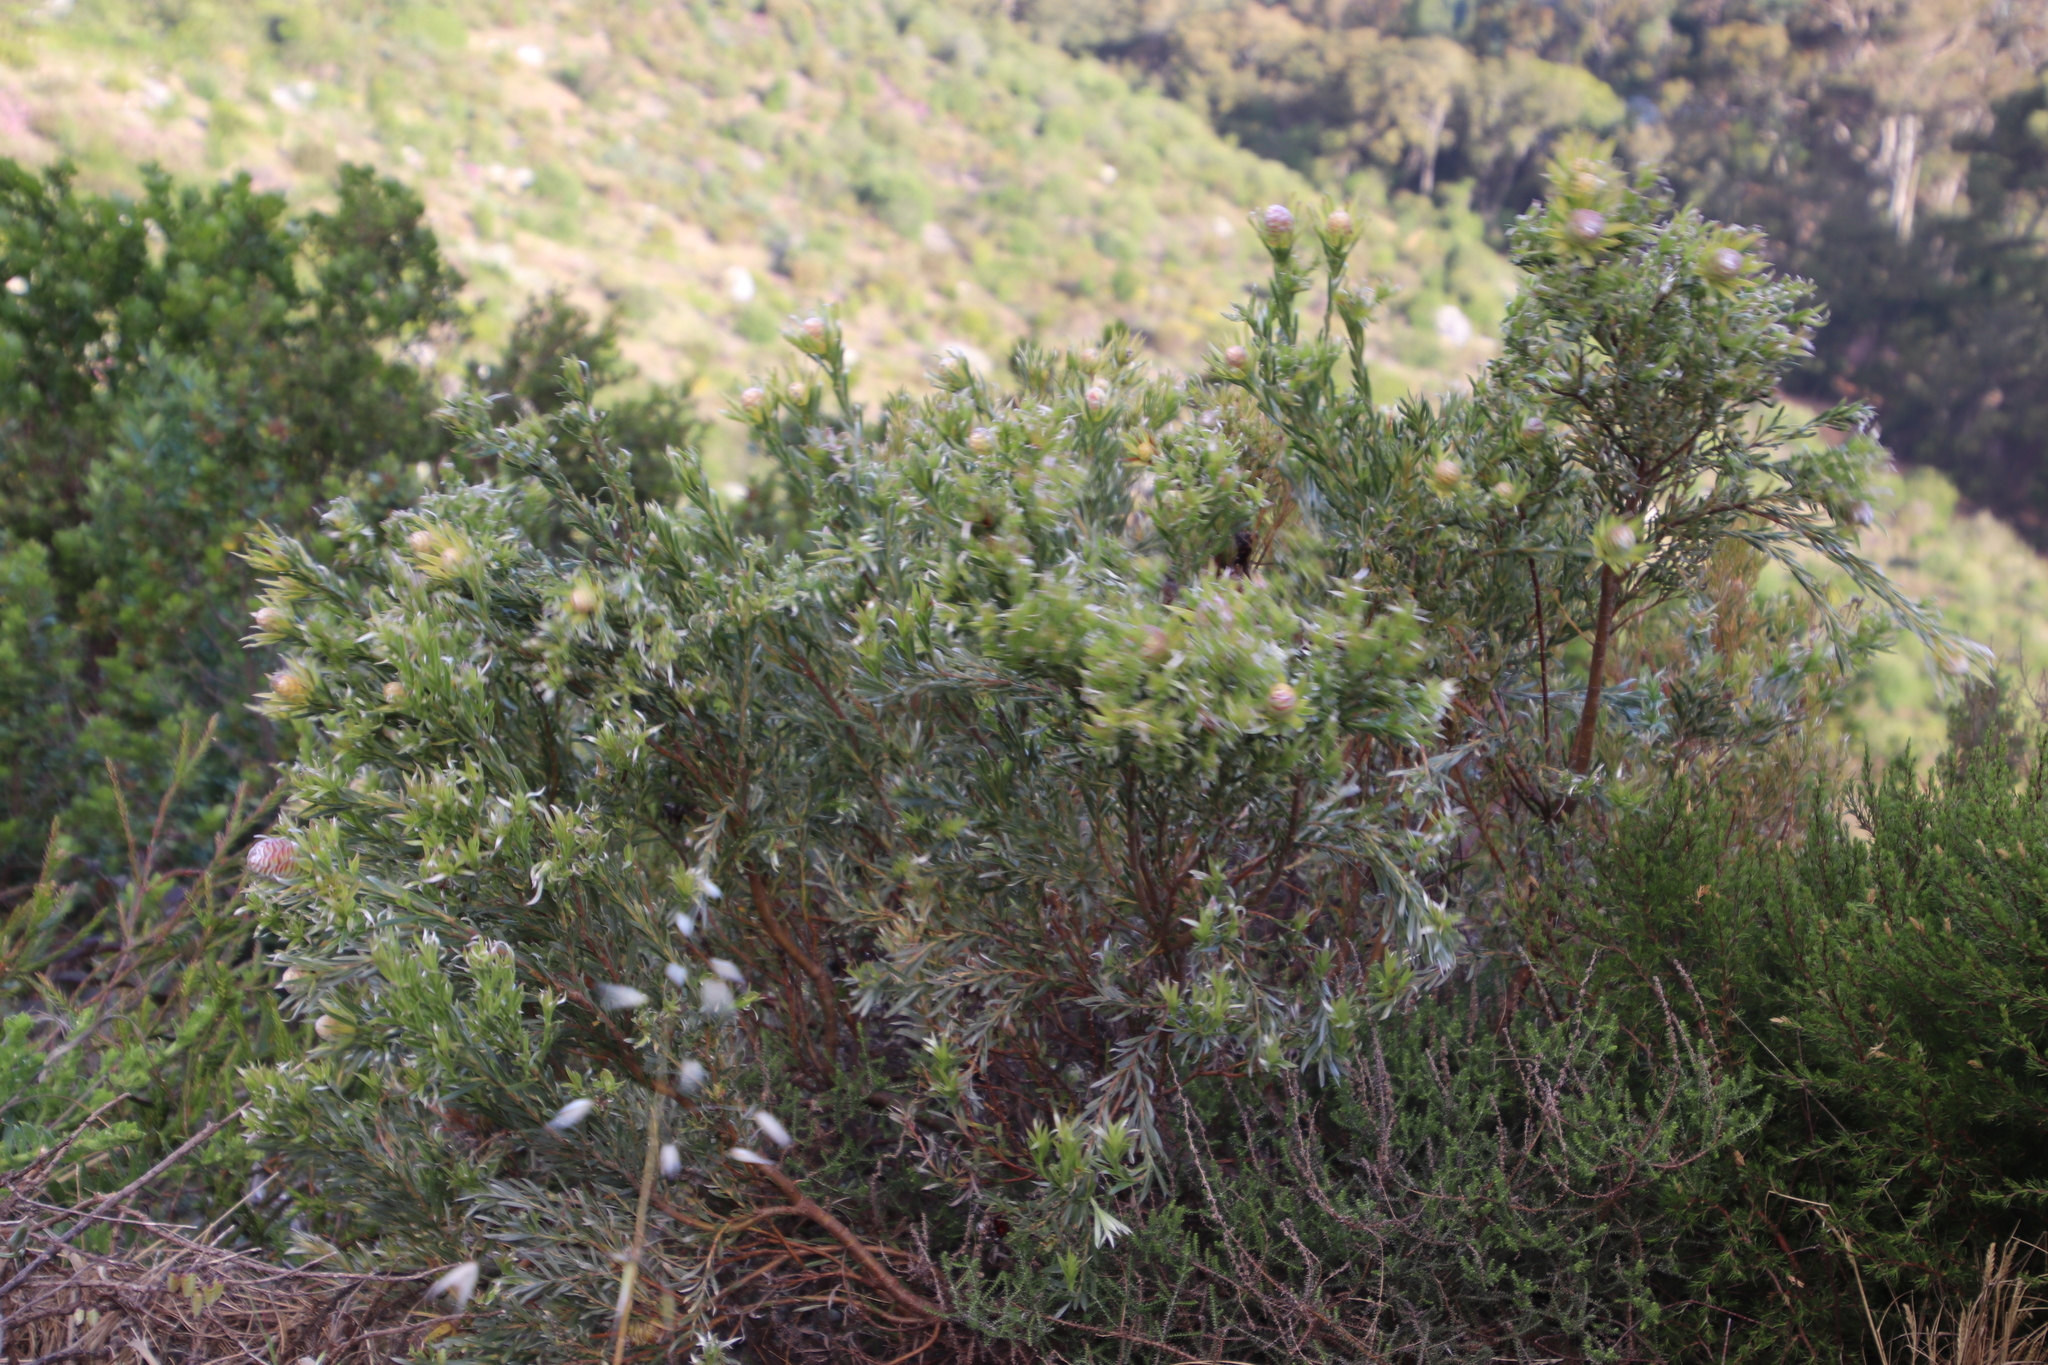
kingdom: Plantae
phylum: Tracheophyta
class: Magnoliopsida
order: Proteales
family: Proteaceae
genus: Leucadendron
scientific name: Leucadendron xanthoconus
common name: Sickle-leaf conebush
